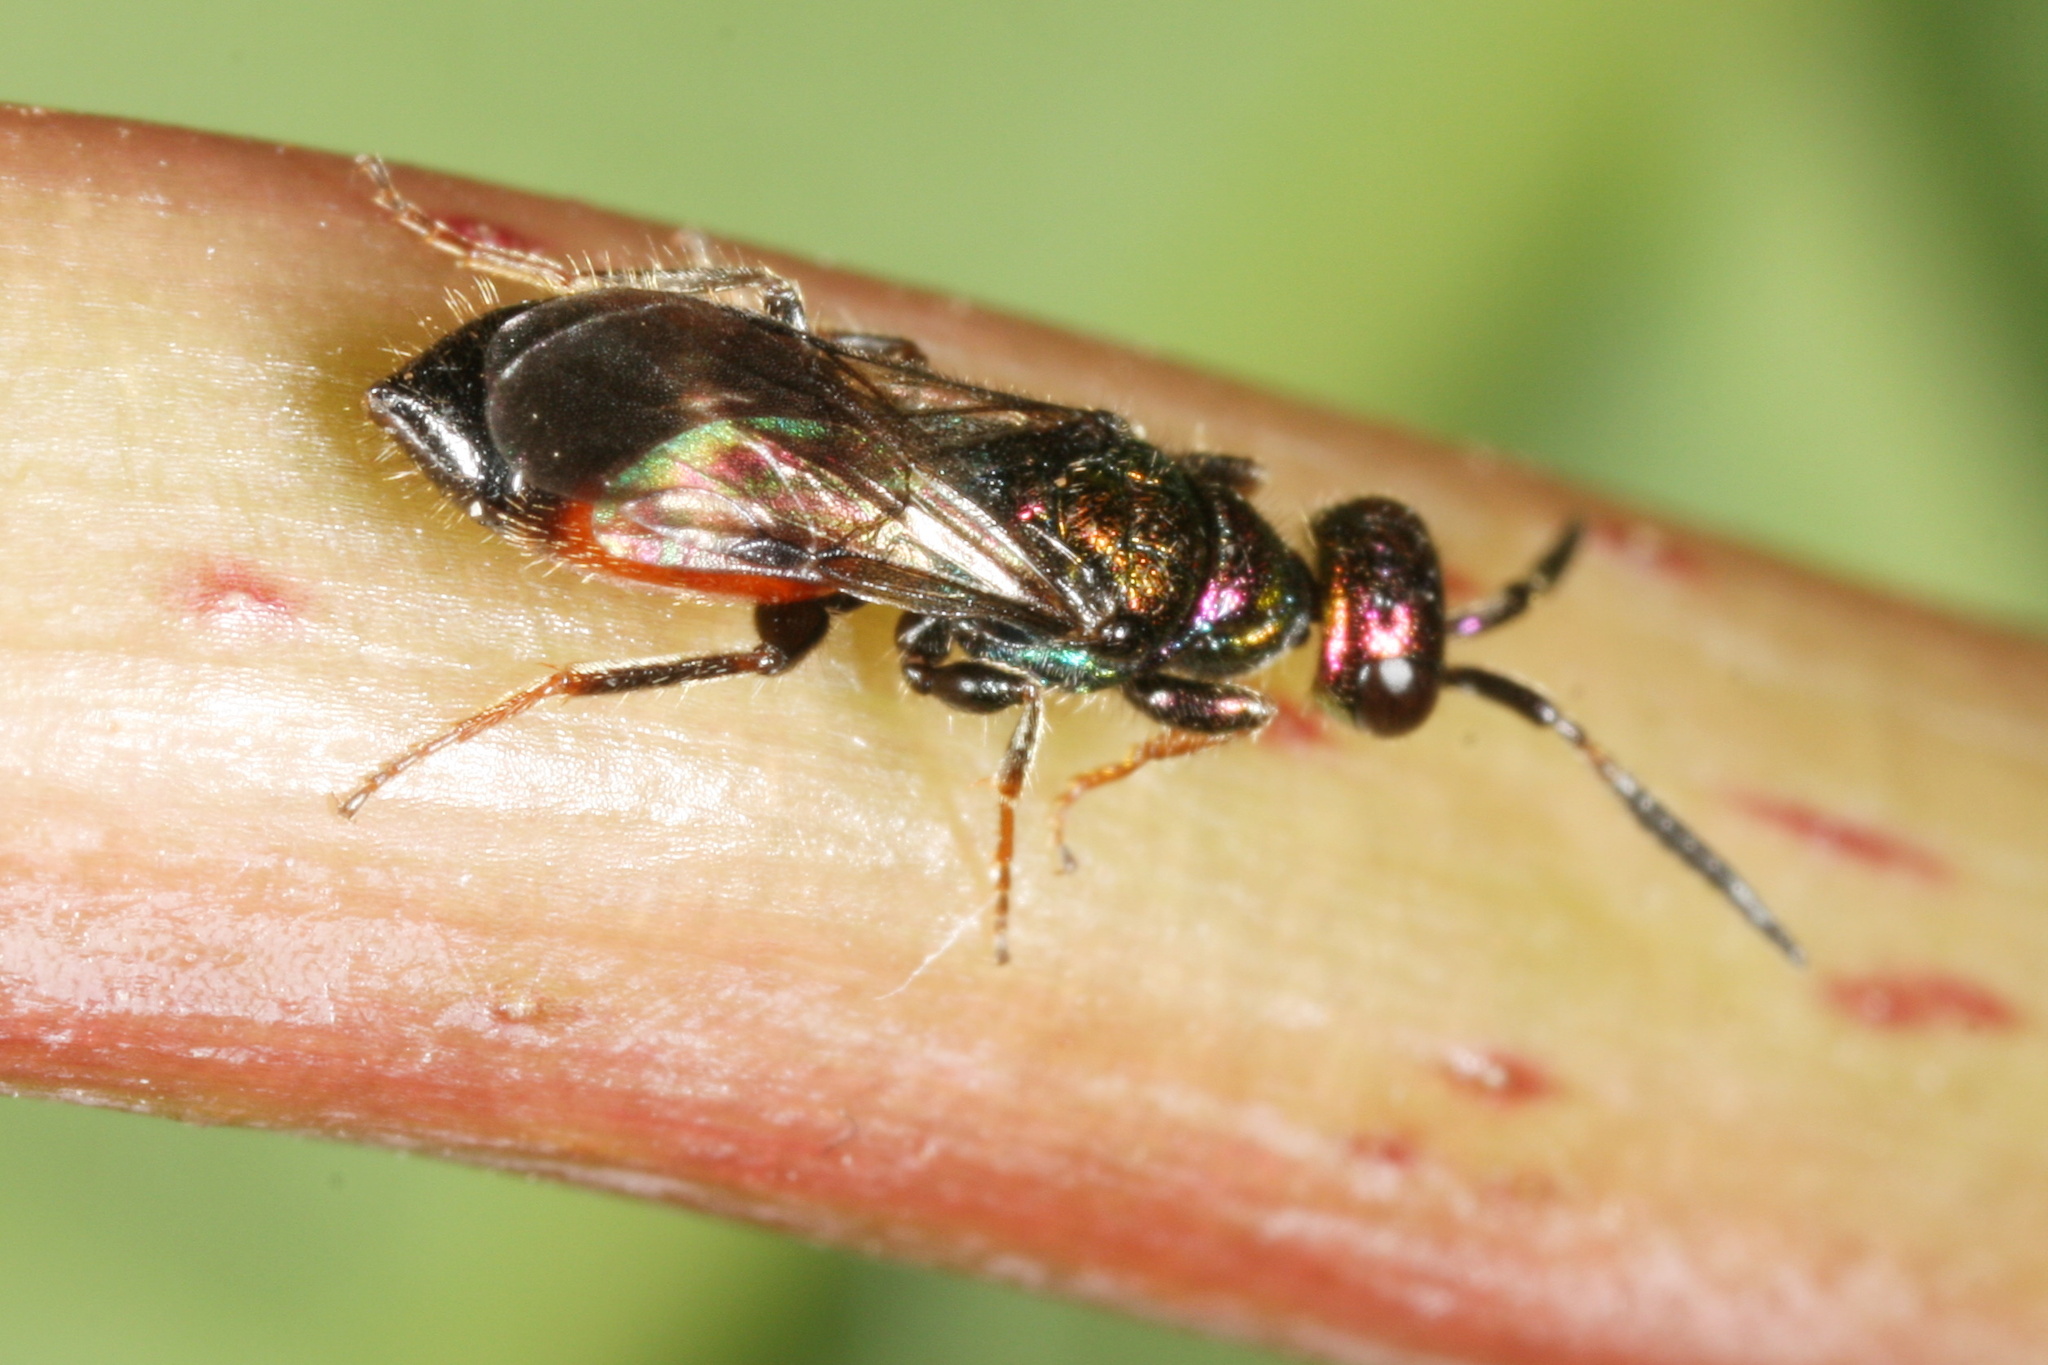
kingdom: Animalia
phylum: Arthropoda
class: Insecta
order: Hymenoptera
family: Chrysididae
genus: Cleptes
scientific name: Cleptes striatipleuris
